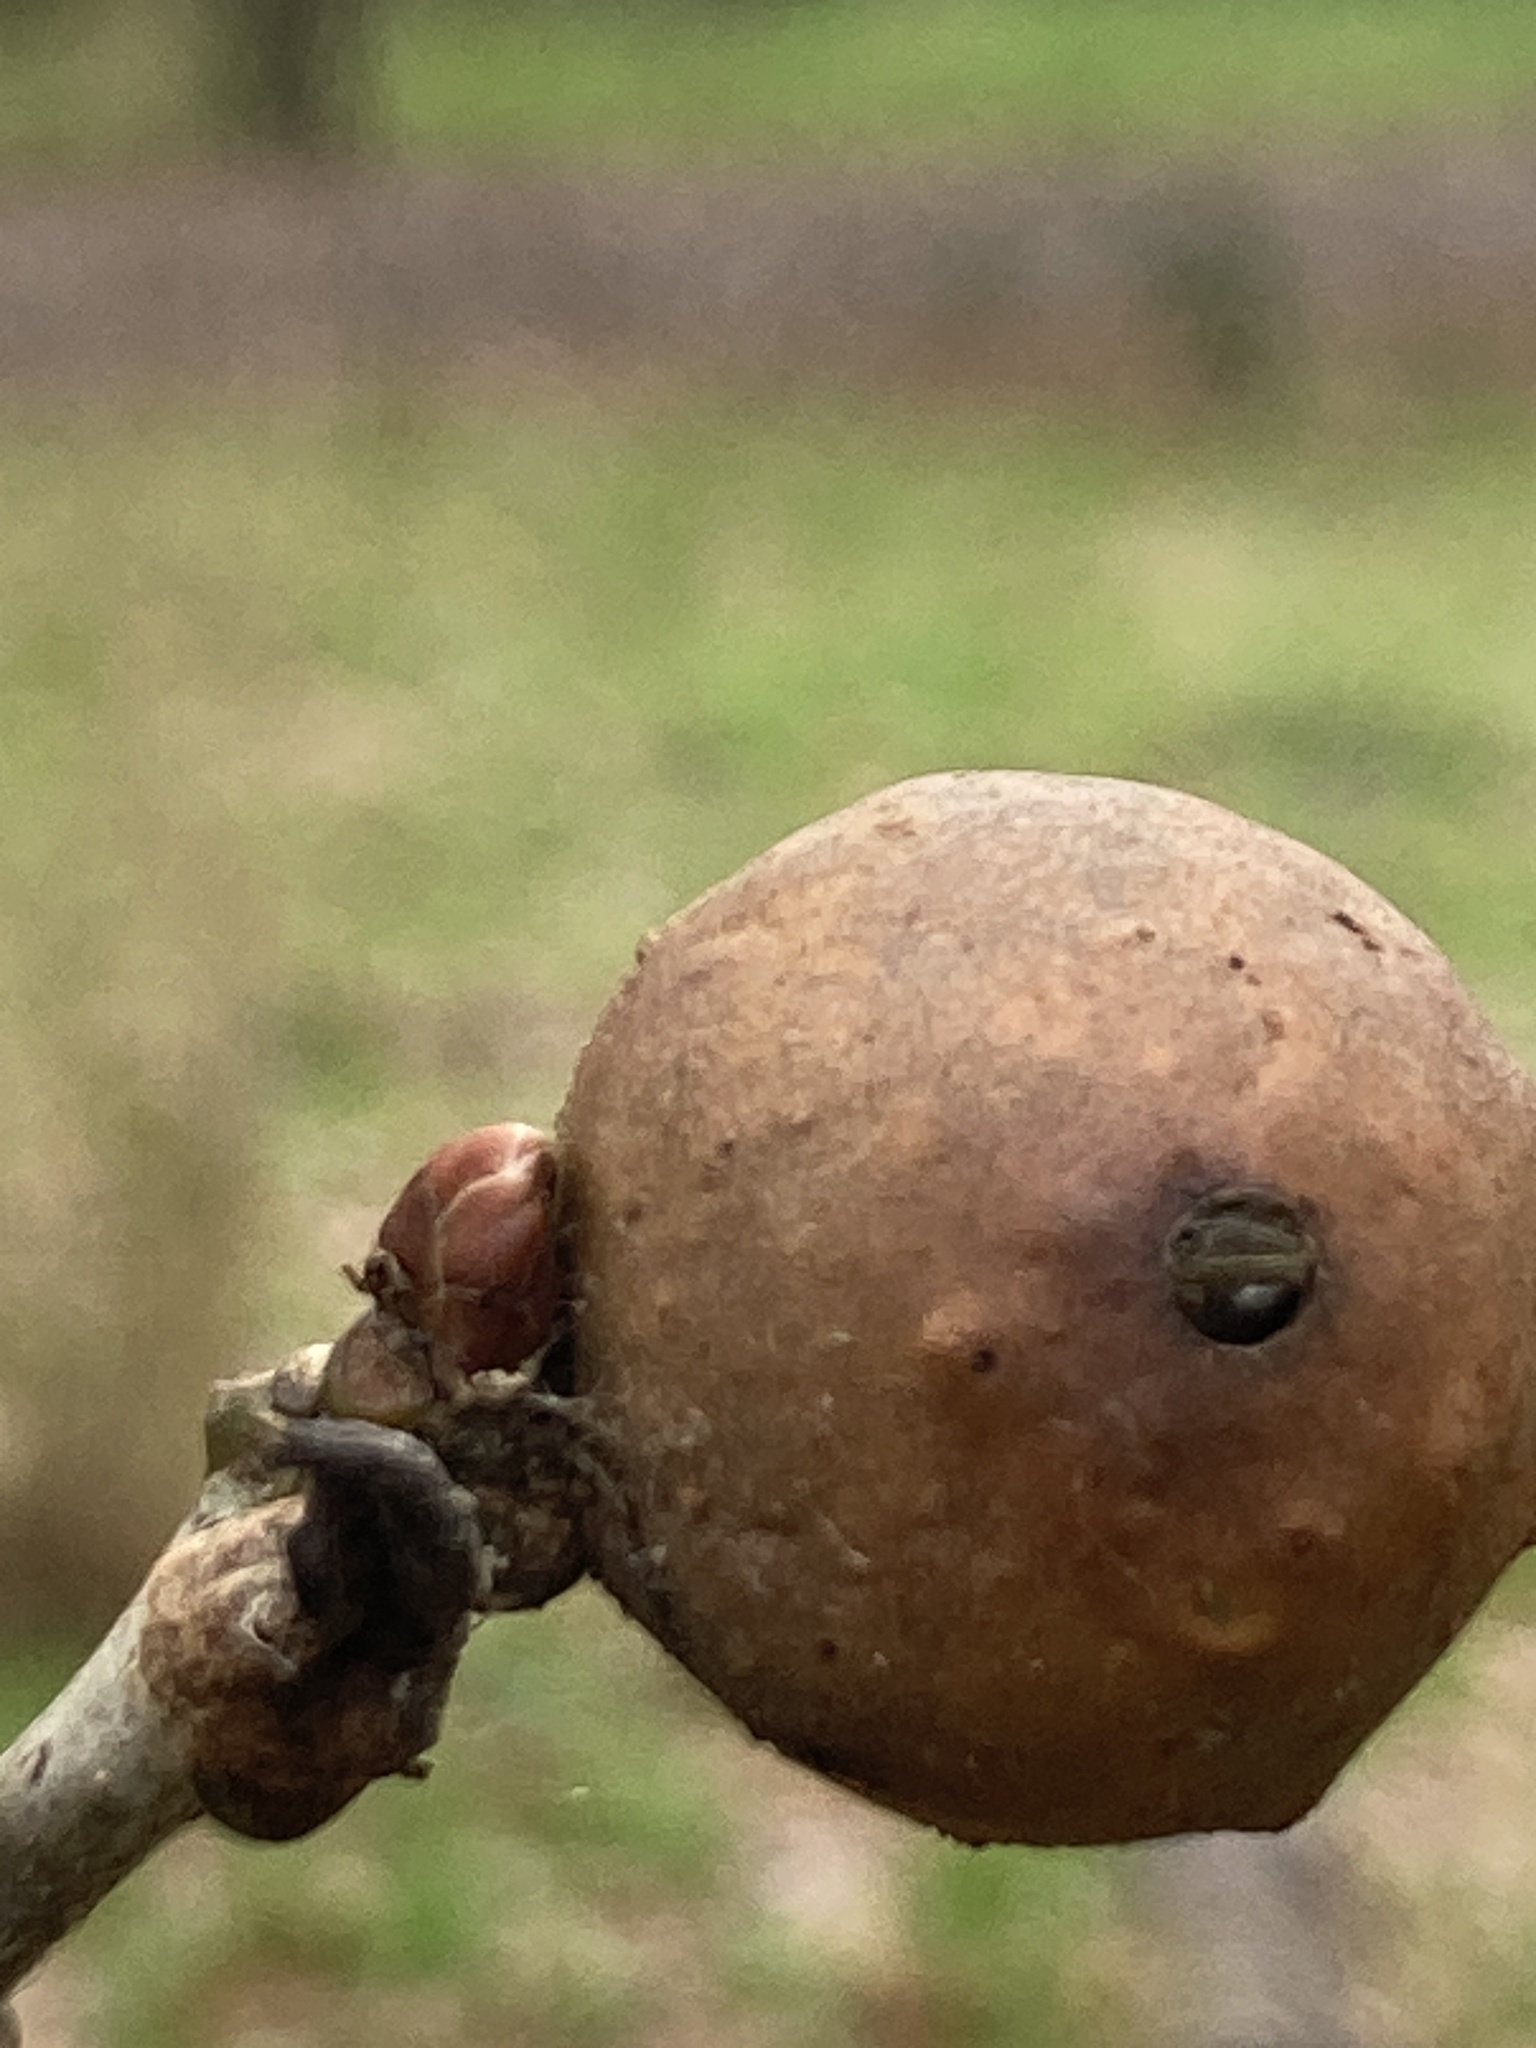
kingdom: Animalia
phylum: Arthropoda
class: Insecta
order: Hymenoptera
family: Cynipidae
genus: Andricus
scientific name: Andricus kollari
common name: Marble gall
